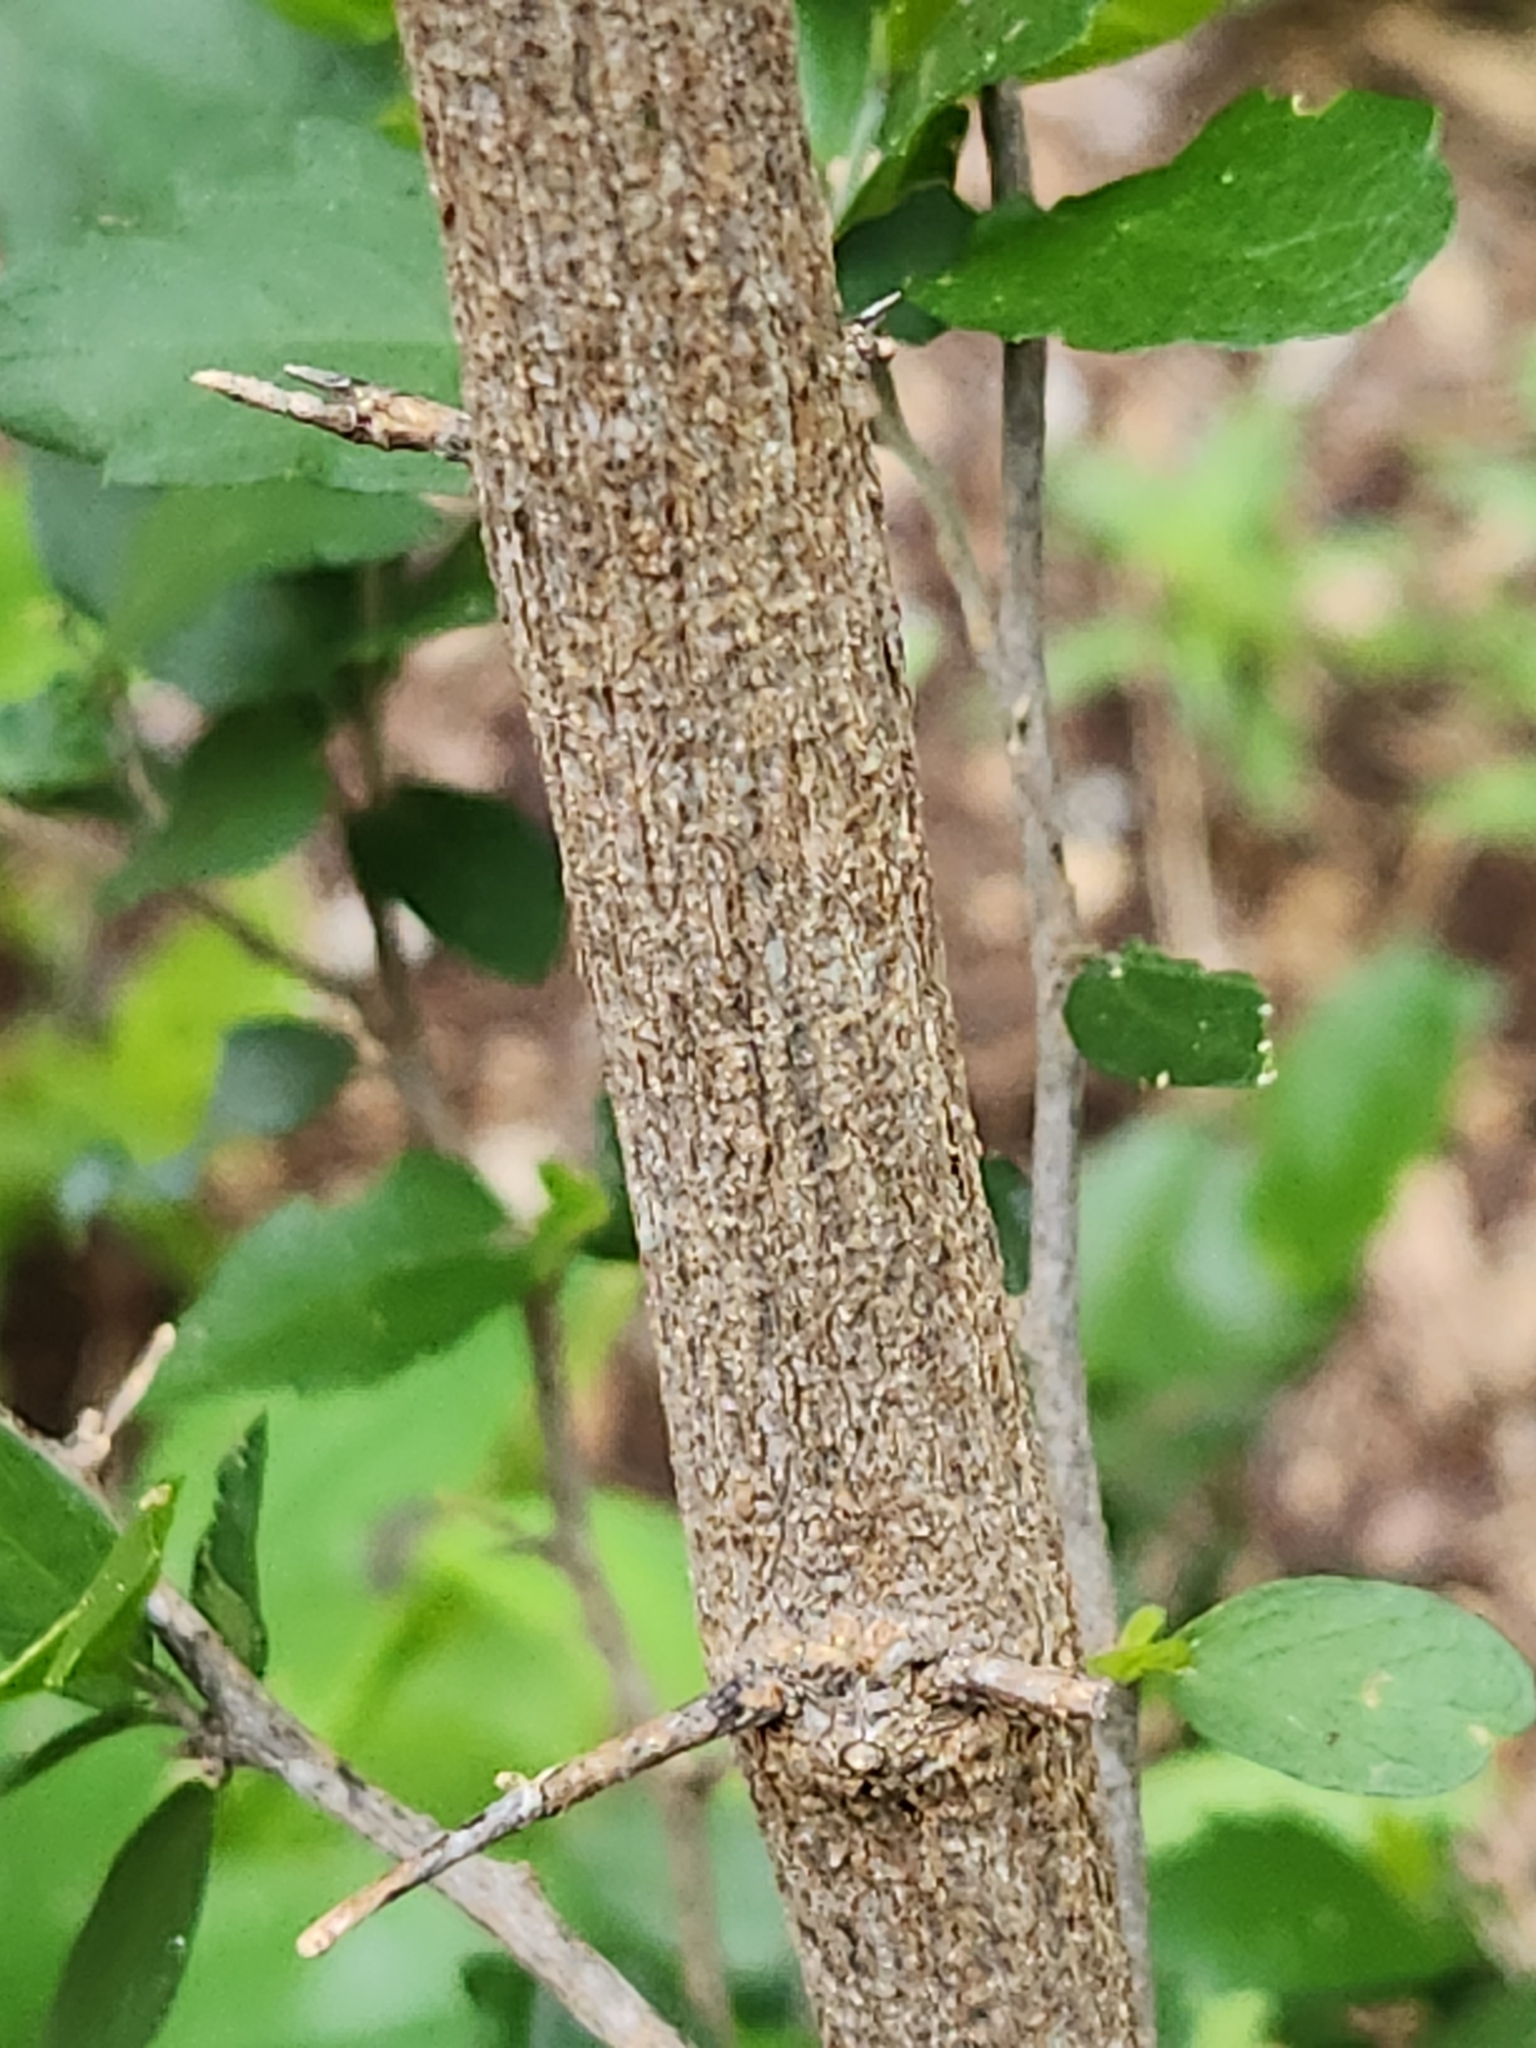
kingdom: Plantae
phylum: Tracheophyta
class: Magnoliopsida
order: Rosales
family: Cannabaceae
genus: Celtis
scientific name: Celtis pallida
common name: Desert hackberry
